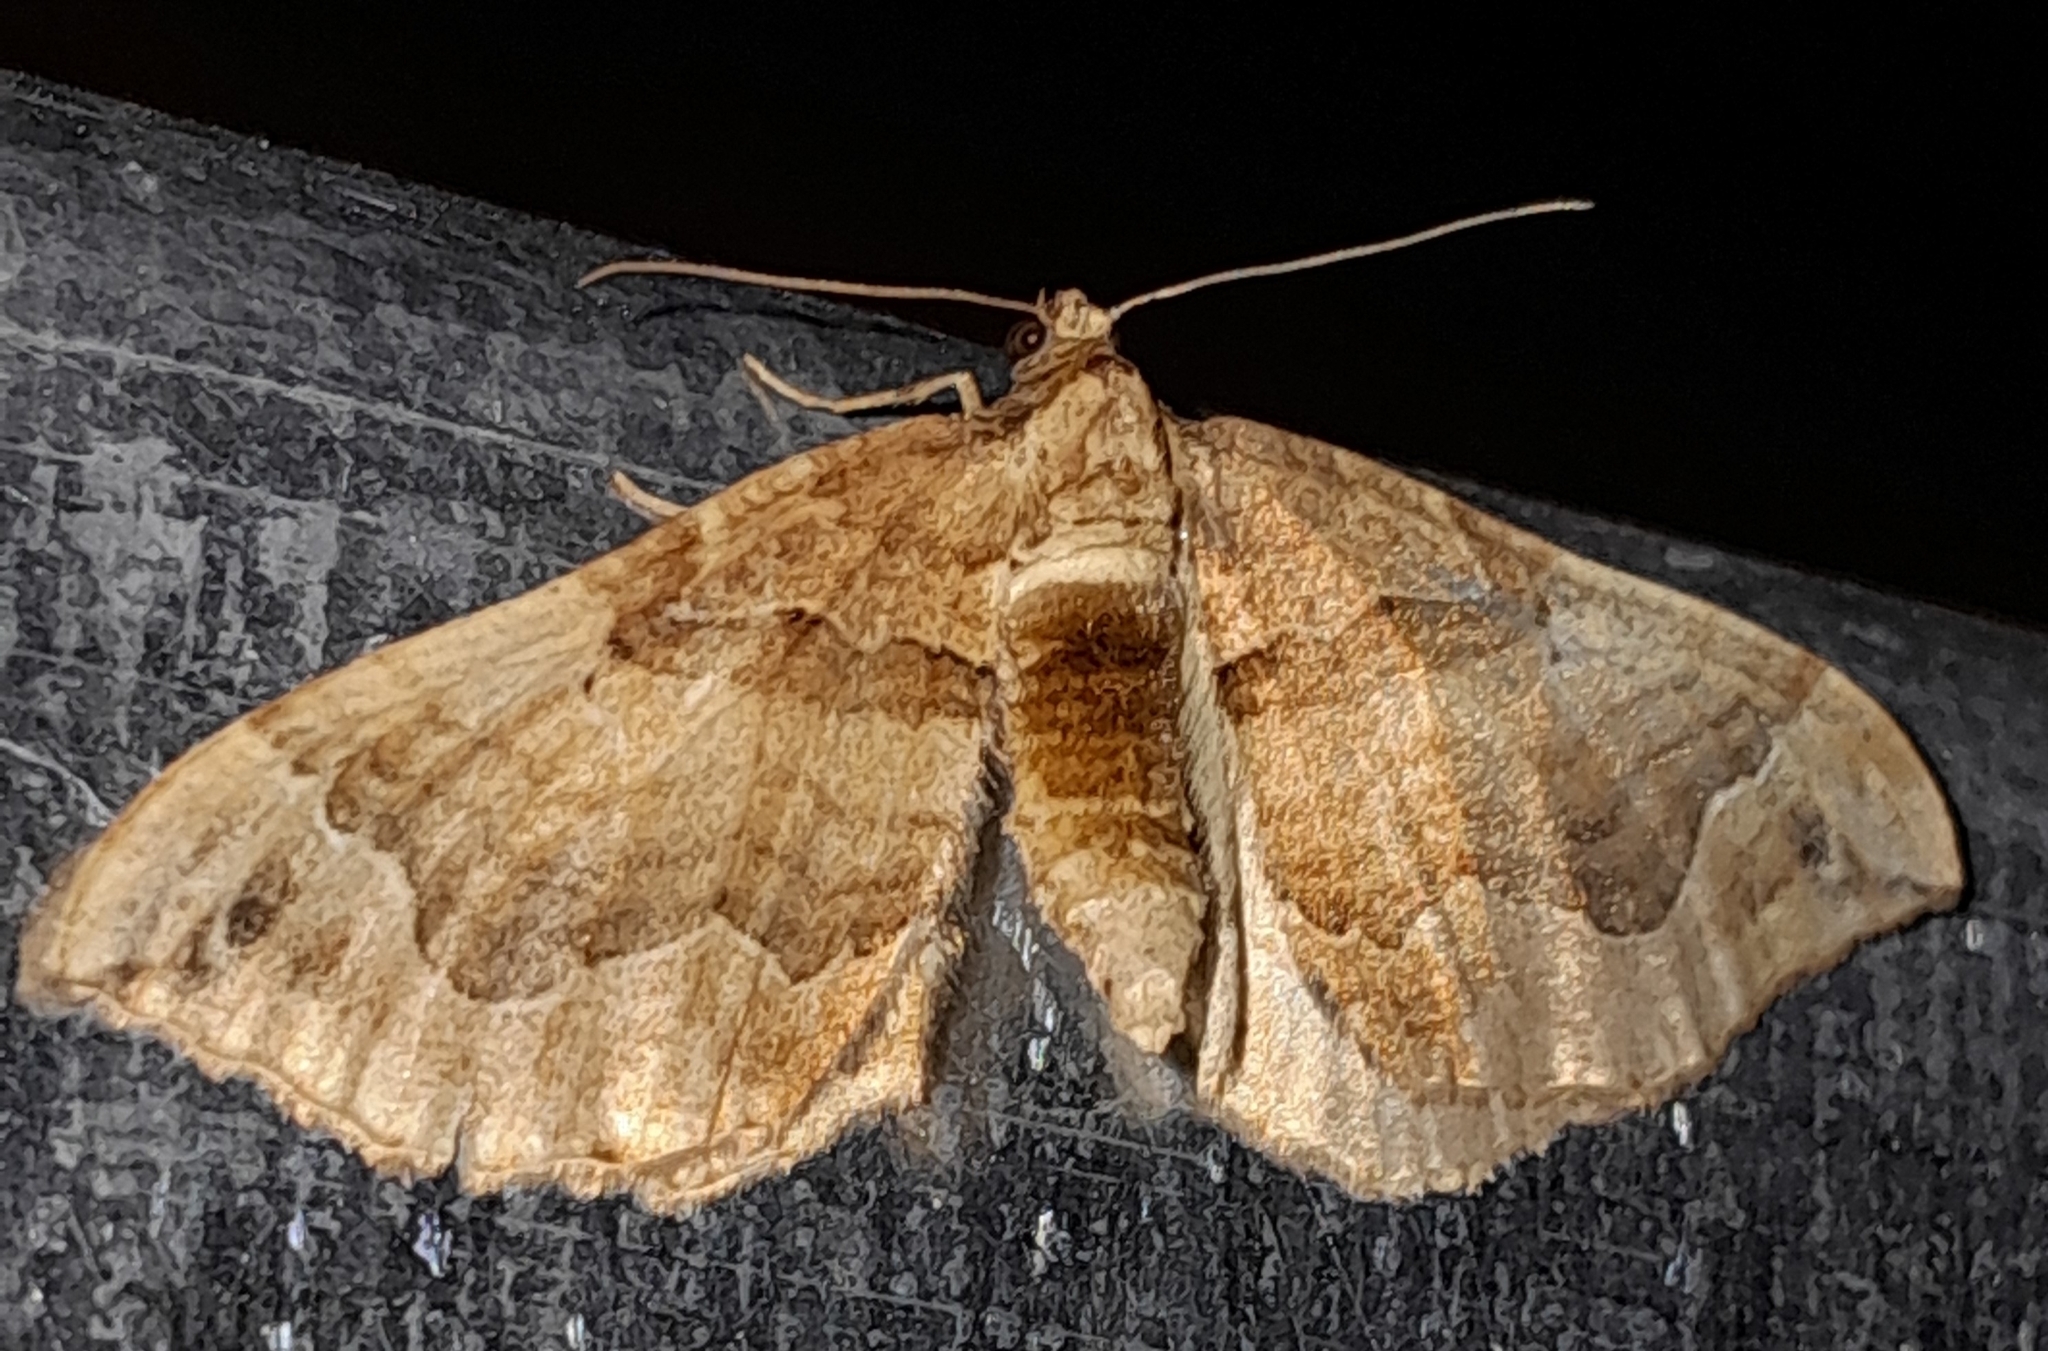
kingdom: Animalia
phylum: Arthropoda
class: Insecta
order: Lepidoptera
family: Geometridae
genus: Pelurga
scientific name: Pelurga comitata
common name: Dark spinach
